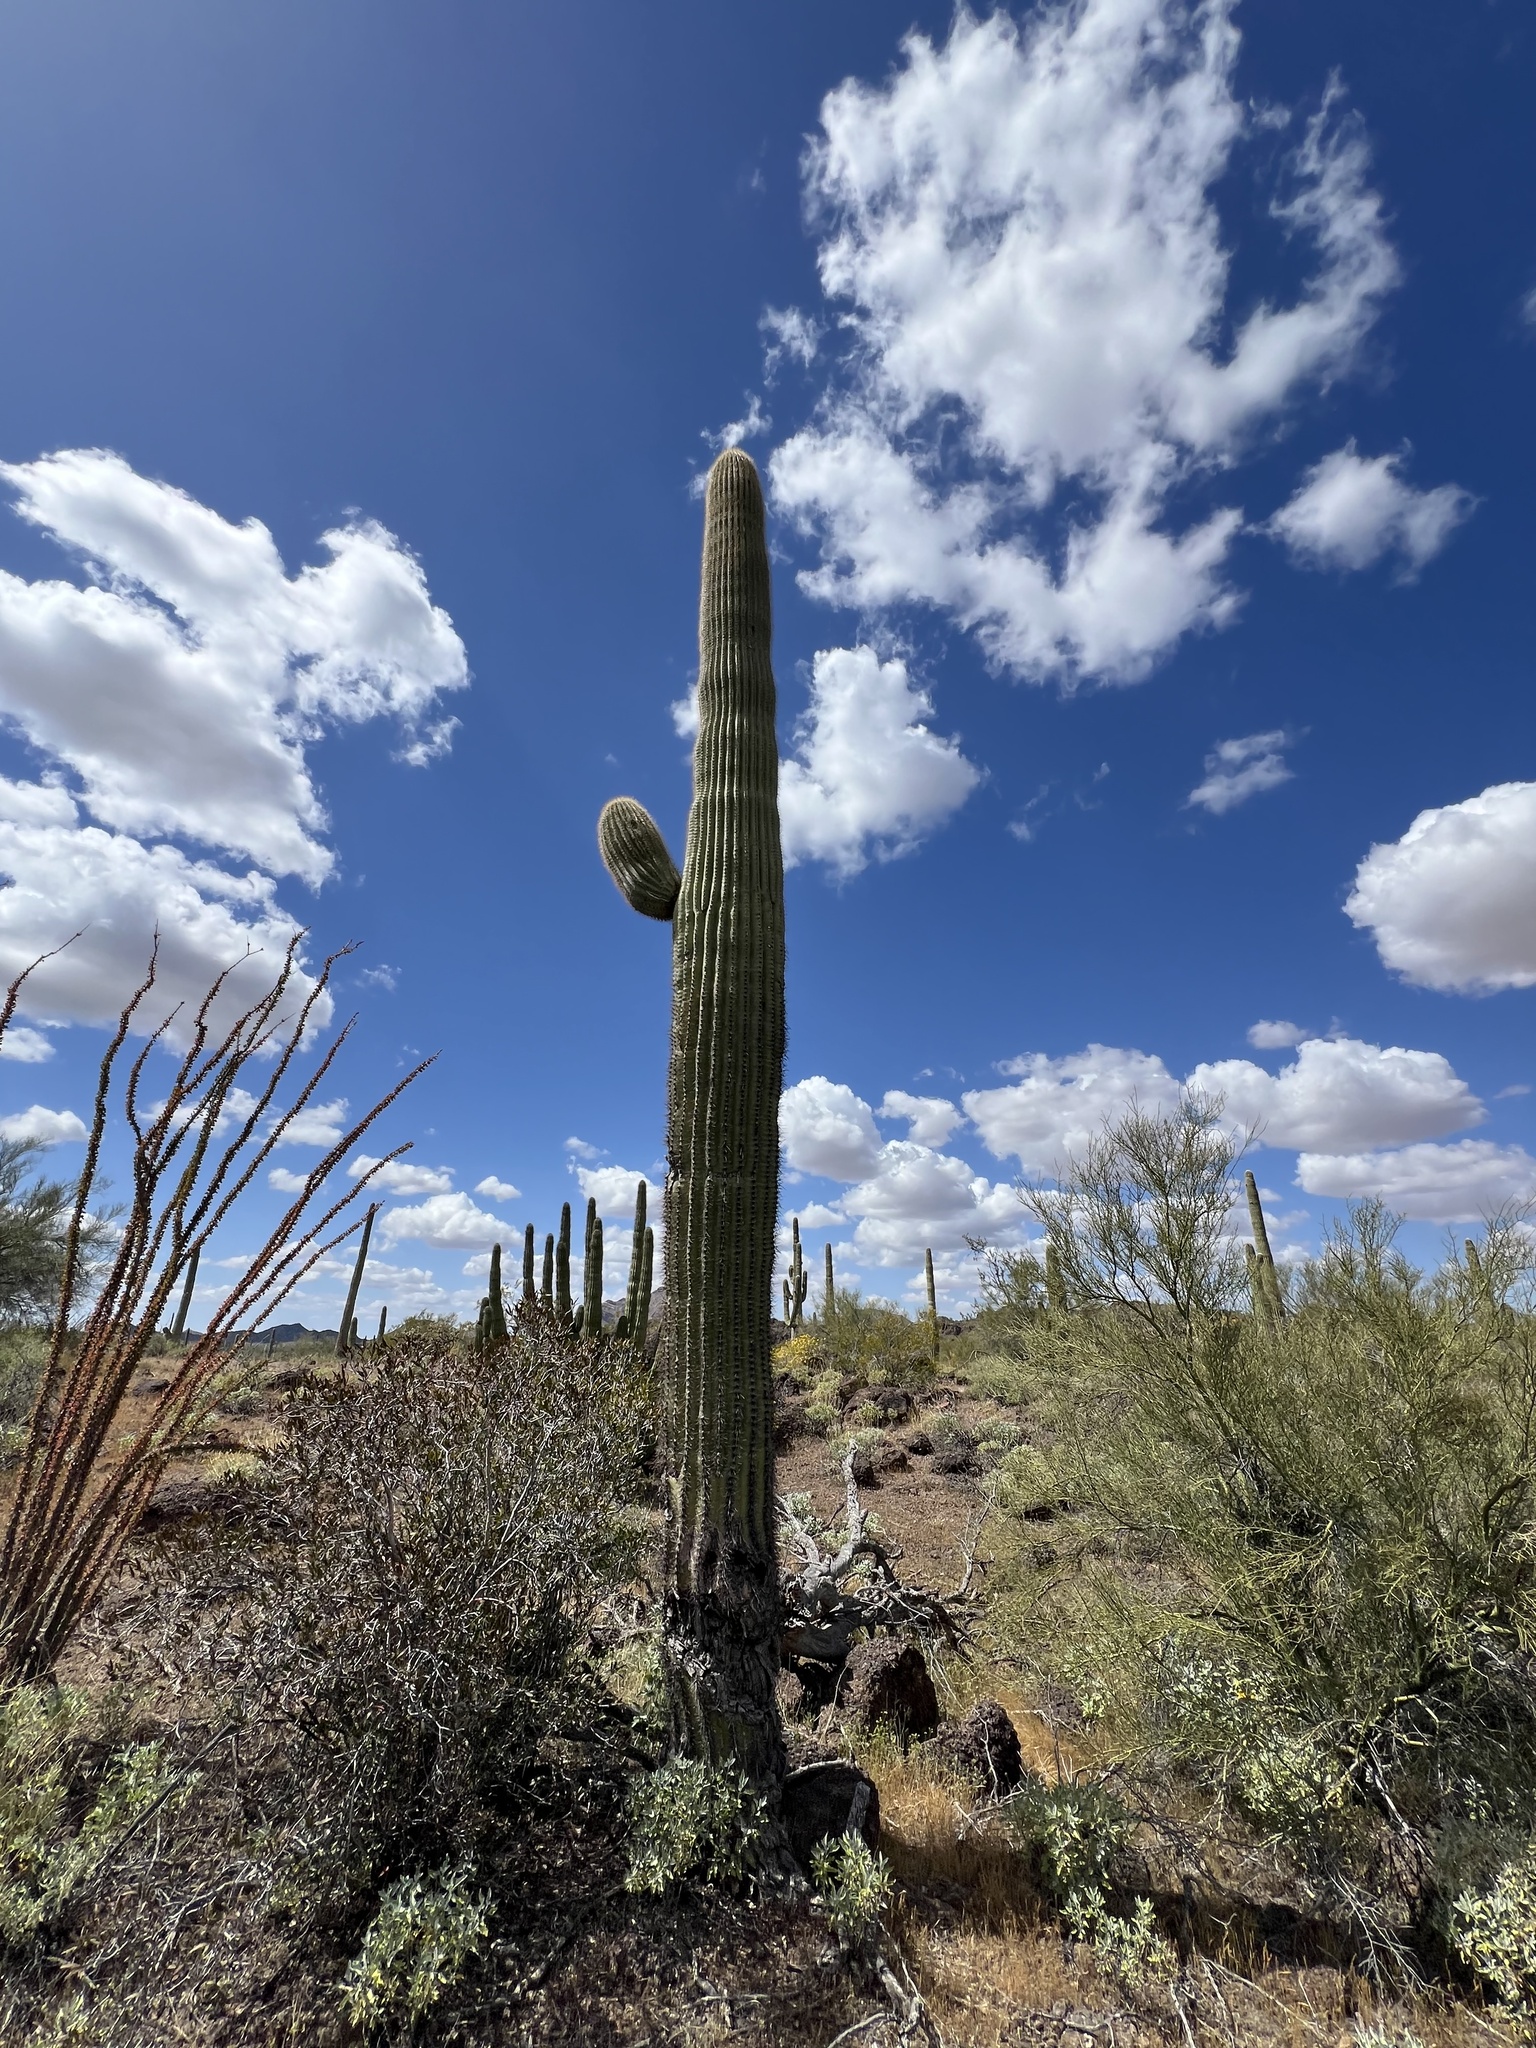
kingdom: Plantae
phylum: Tracheophyta
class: Magnoliopsida
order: Caryophyllales
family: Cactaceae
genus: Carnegiea
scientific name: Carnegiea gigantea
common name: Saguaro
